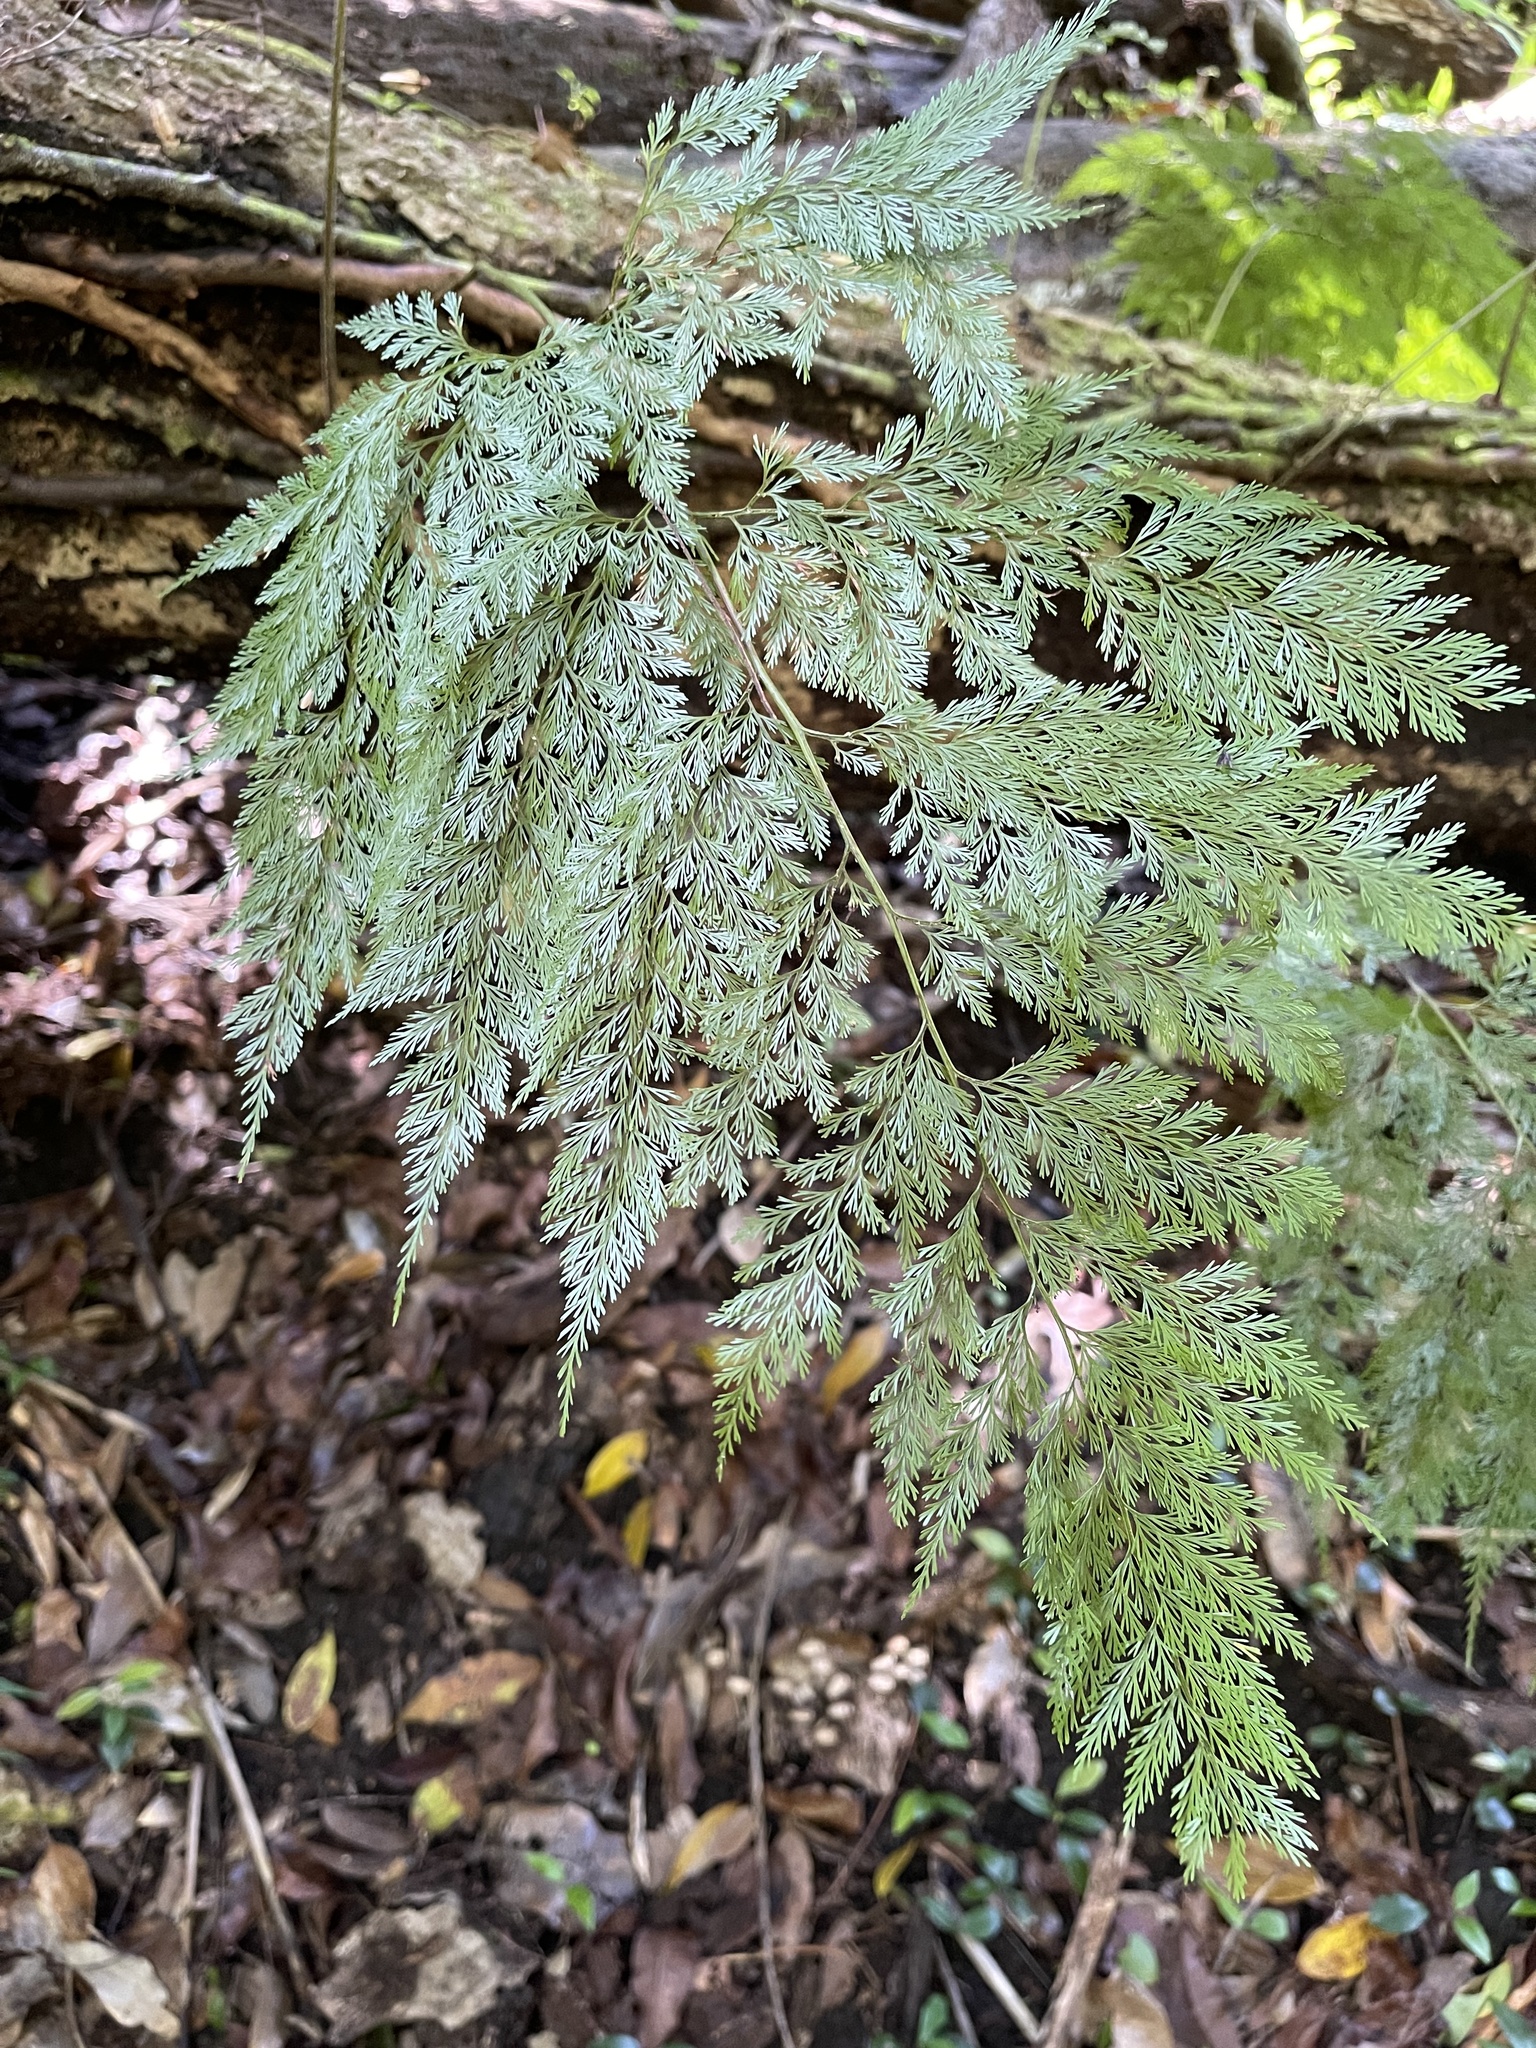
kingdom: Plantae
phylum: Tracheophyta
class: Polypodiopsida
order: Polypodiales
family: Davalliaceae
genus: Davallia
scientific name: Davallia fejeensis
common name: Lacy hare's-foot fern
